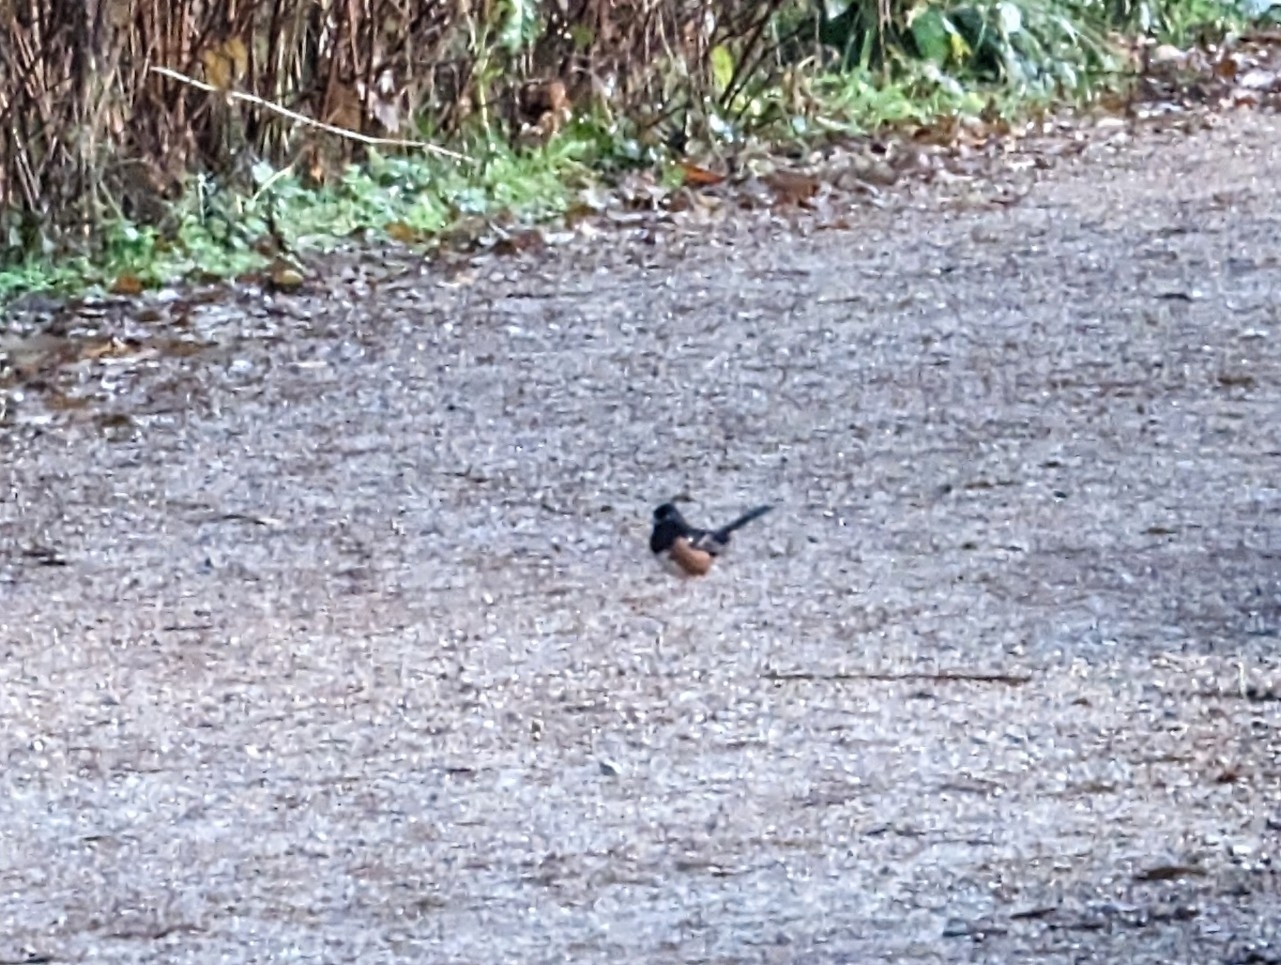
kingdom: Animalia
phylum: Chordata
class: Aves
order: Passeriformes
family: Passerellidae
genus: Pipilo
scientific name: Pipilo maculatus
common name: Spotted towhee
